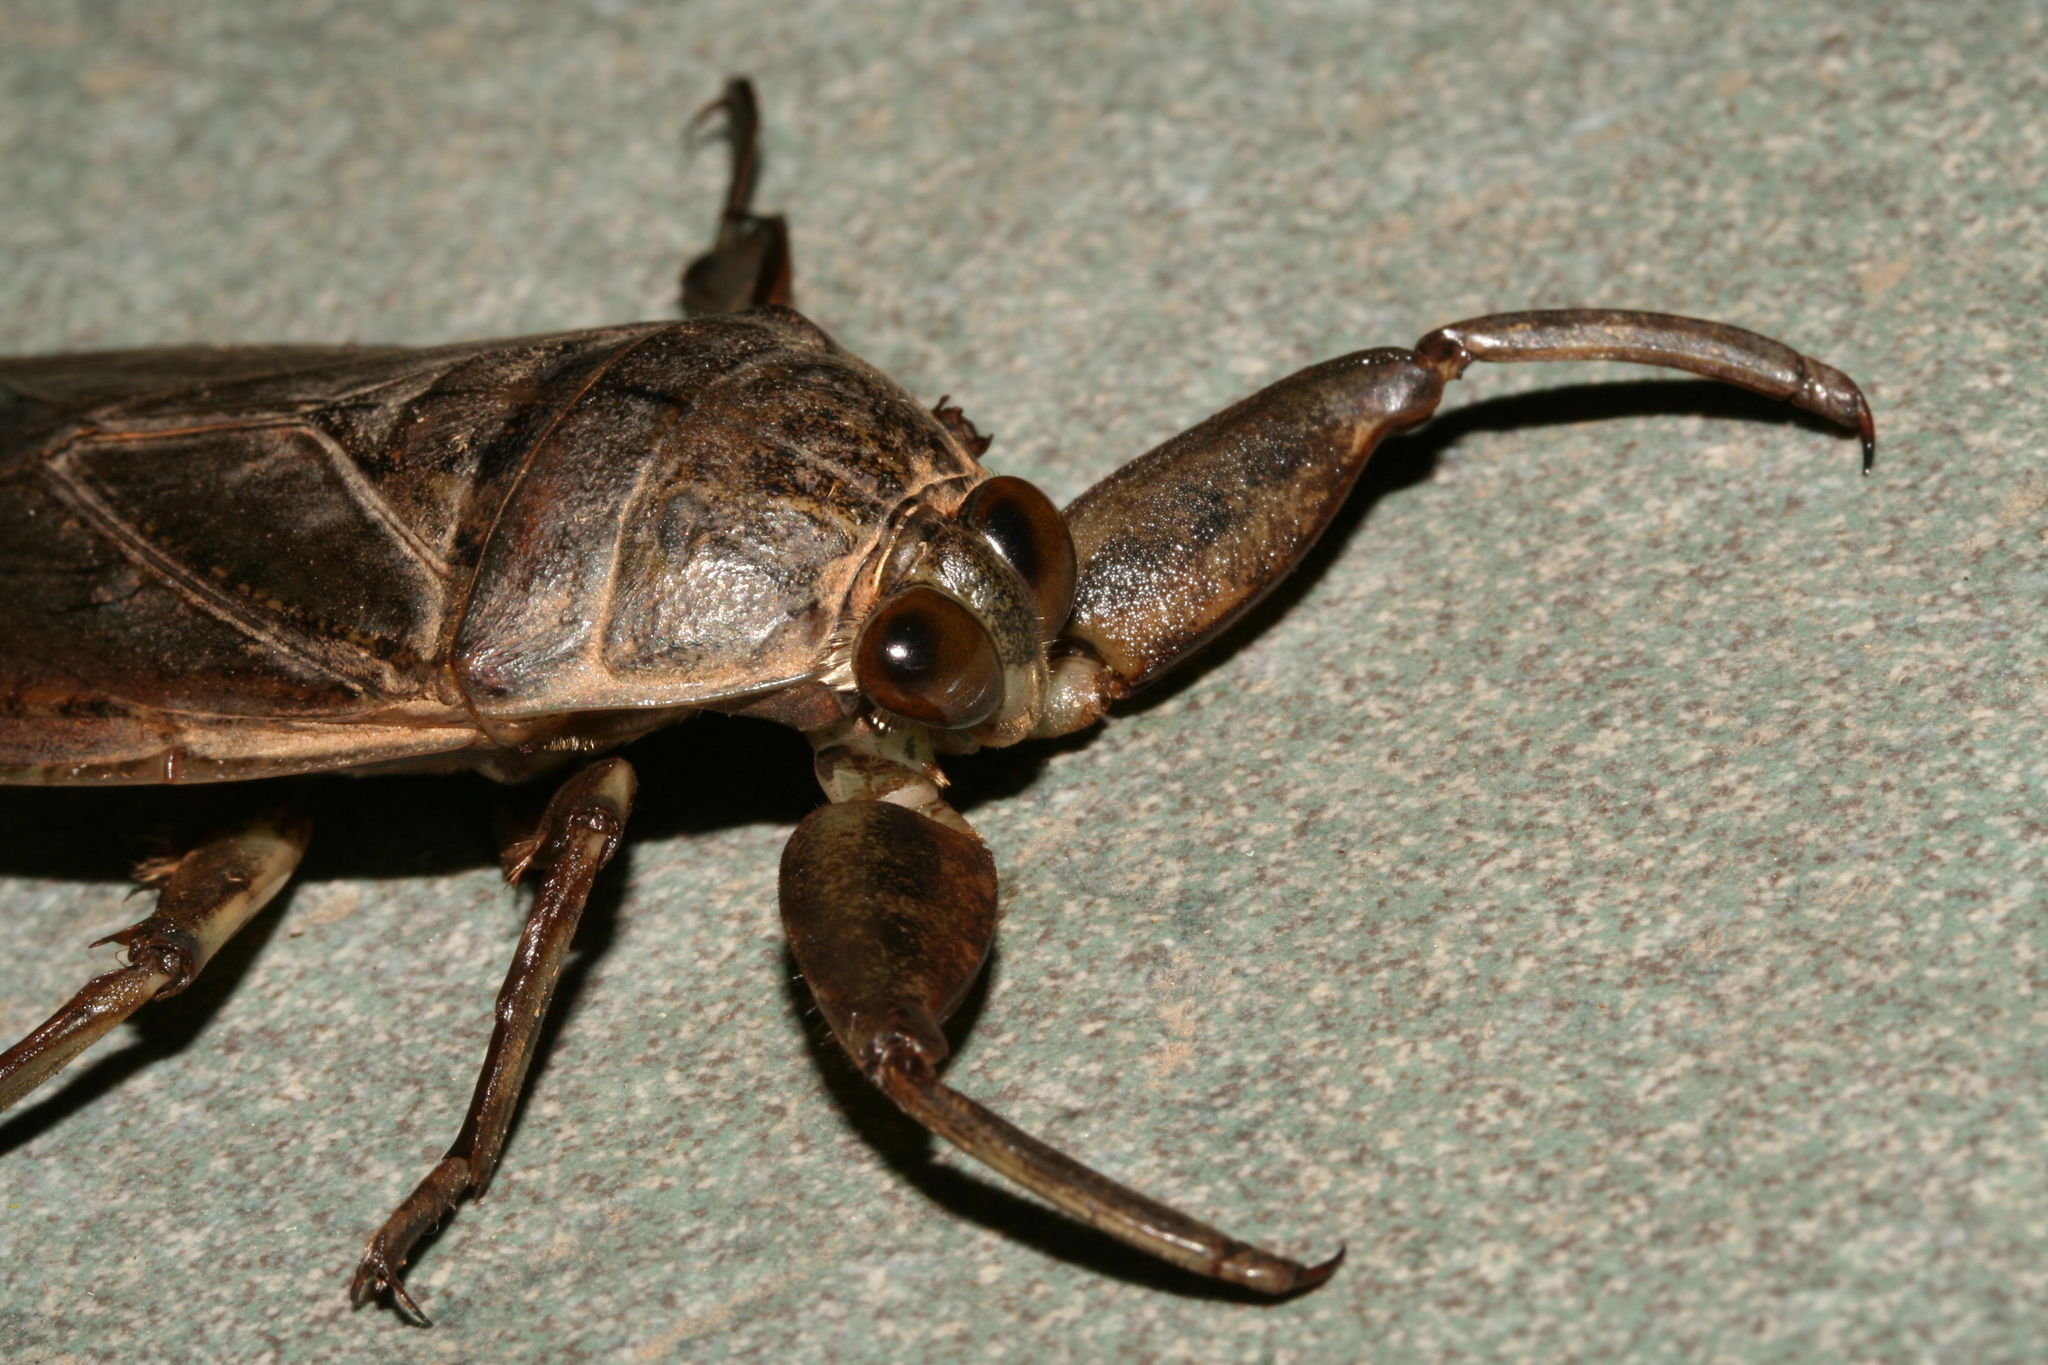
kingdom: Animalia
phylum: Arthropoda
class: Insecta
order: Hemiptera
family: Belostomatidae
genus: Lethocerus
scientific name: Lethocerus oculatus
